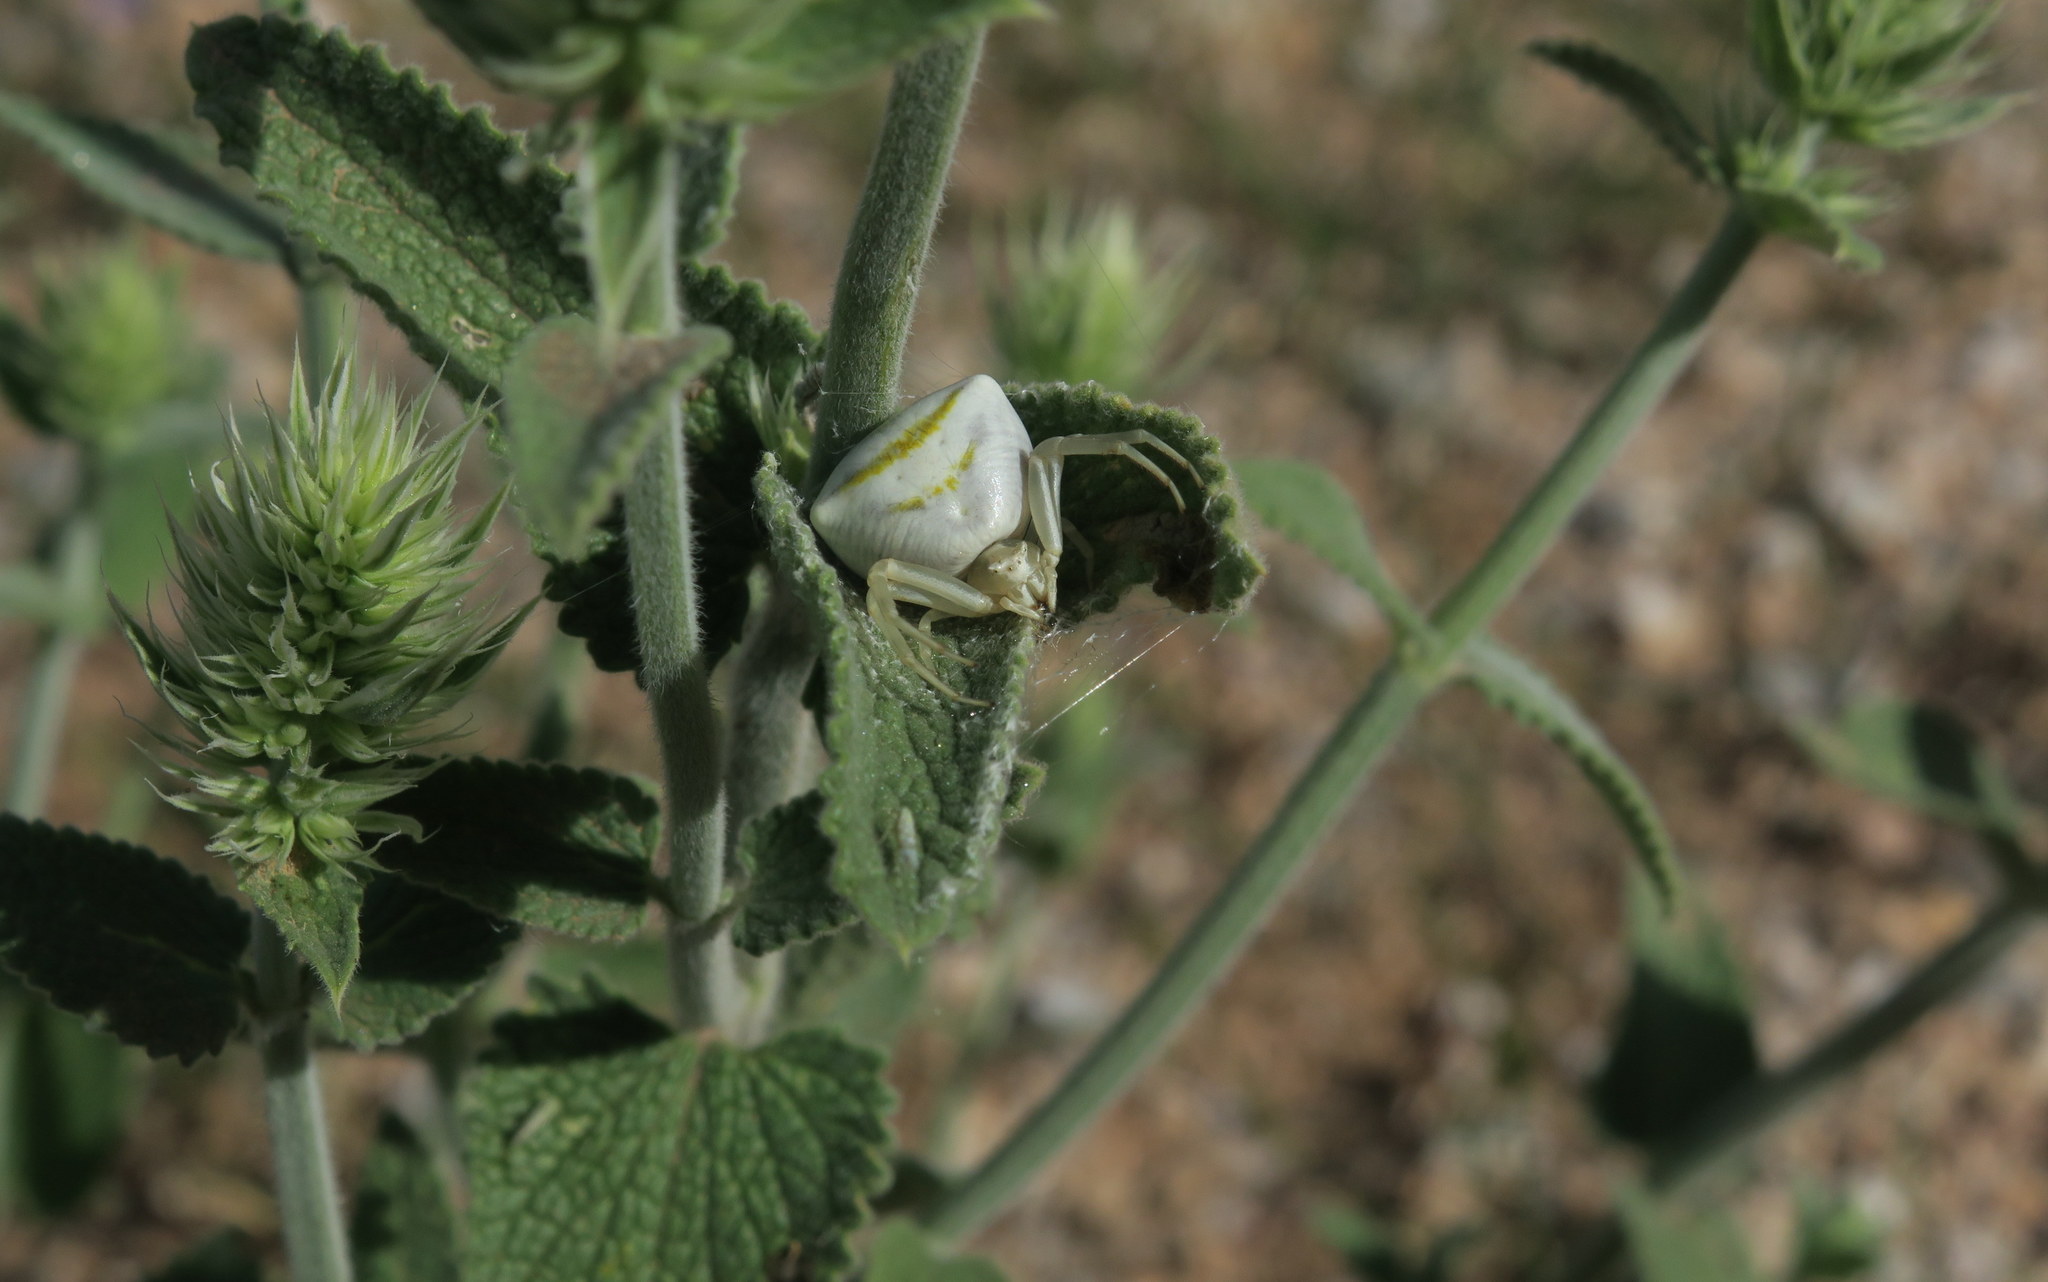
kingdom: Animalia
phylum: Arthropoda
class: Arachnida
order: Araneae
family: Thomisidae
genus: Thomisus
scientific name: Thomisus onustus
